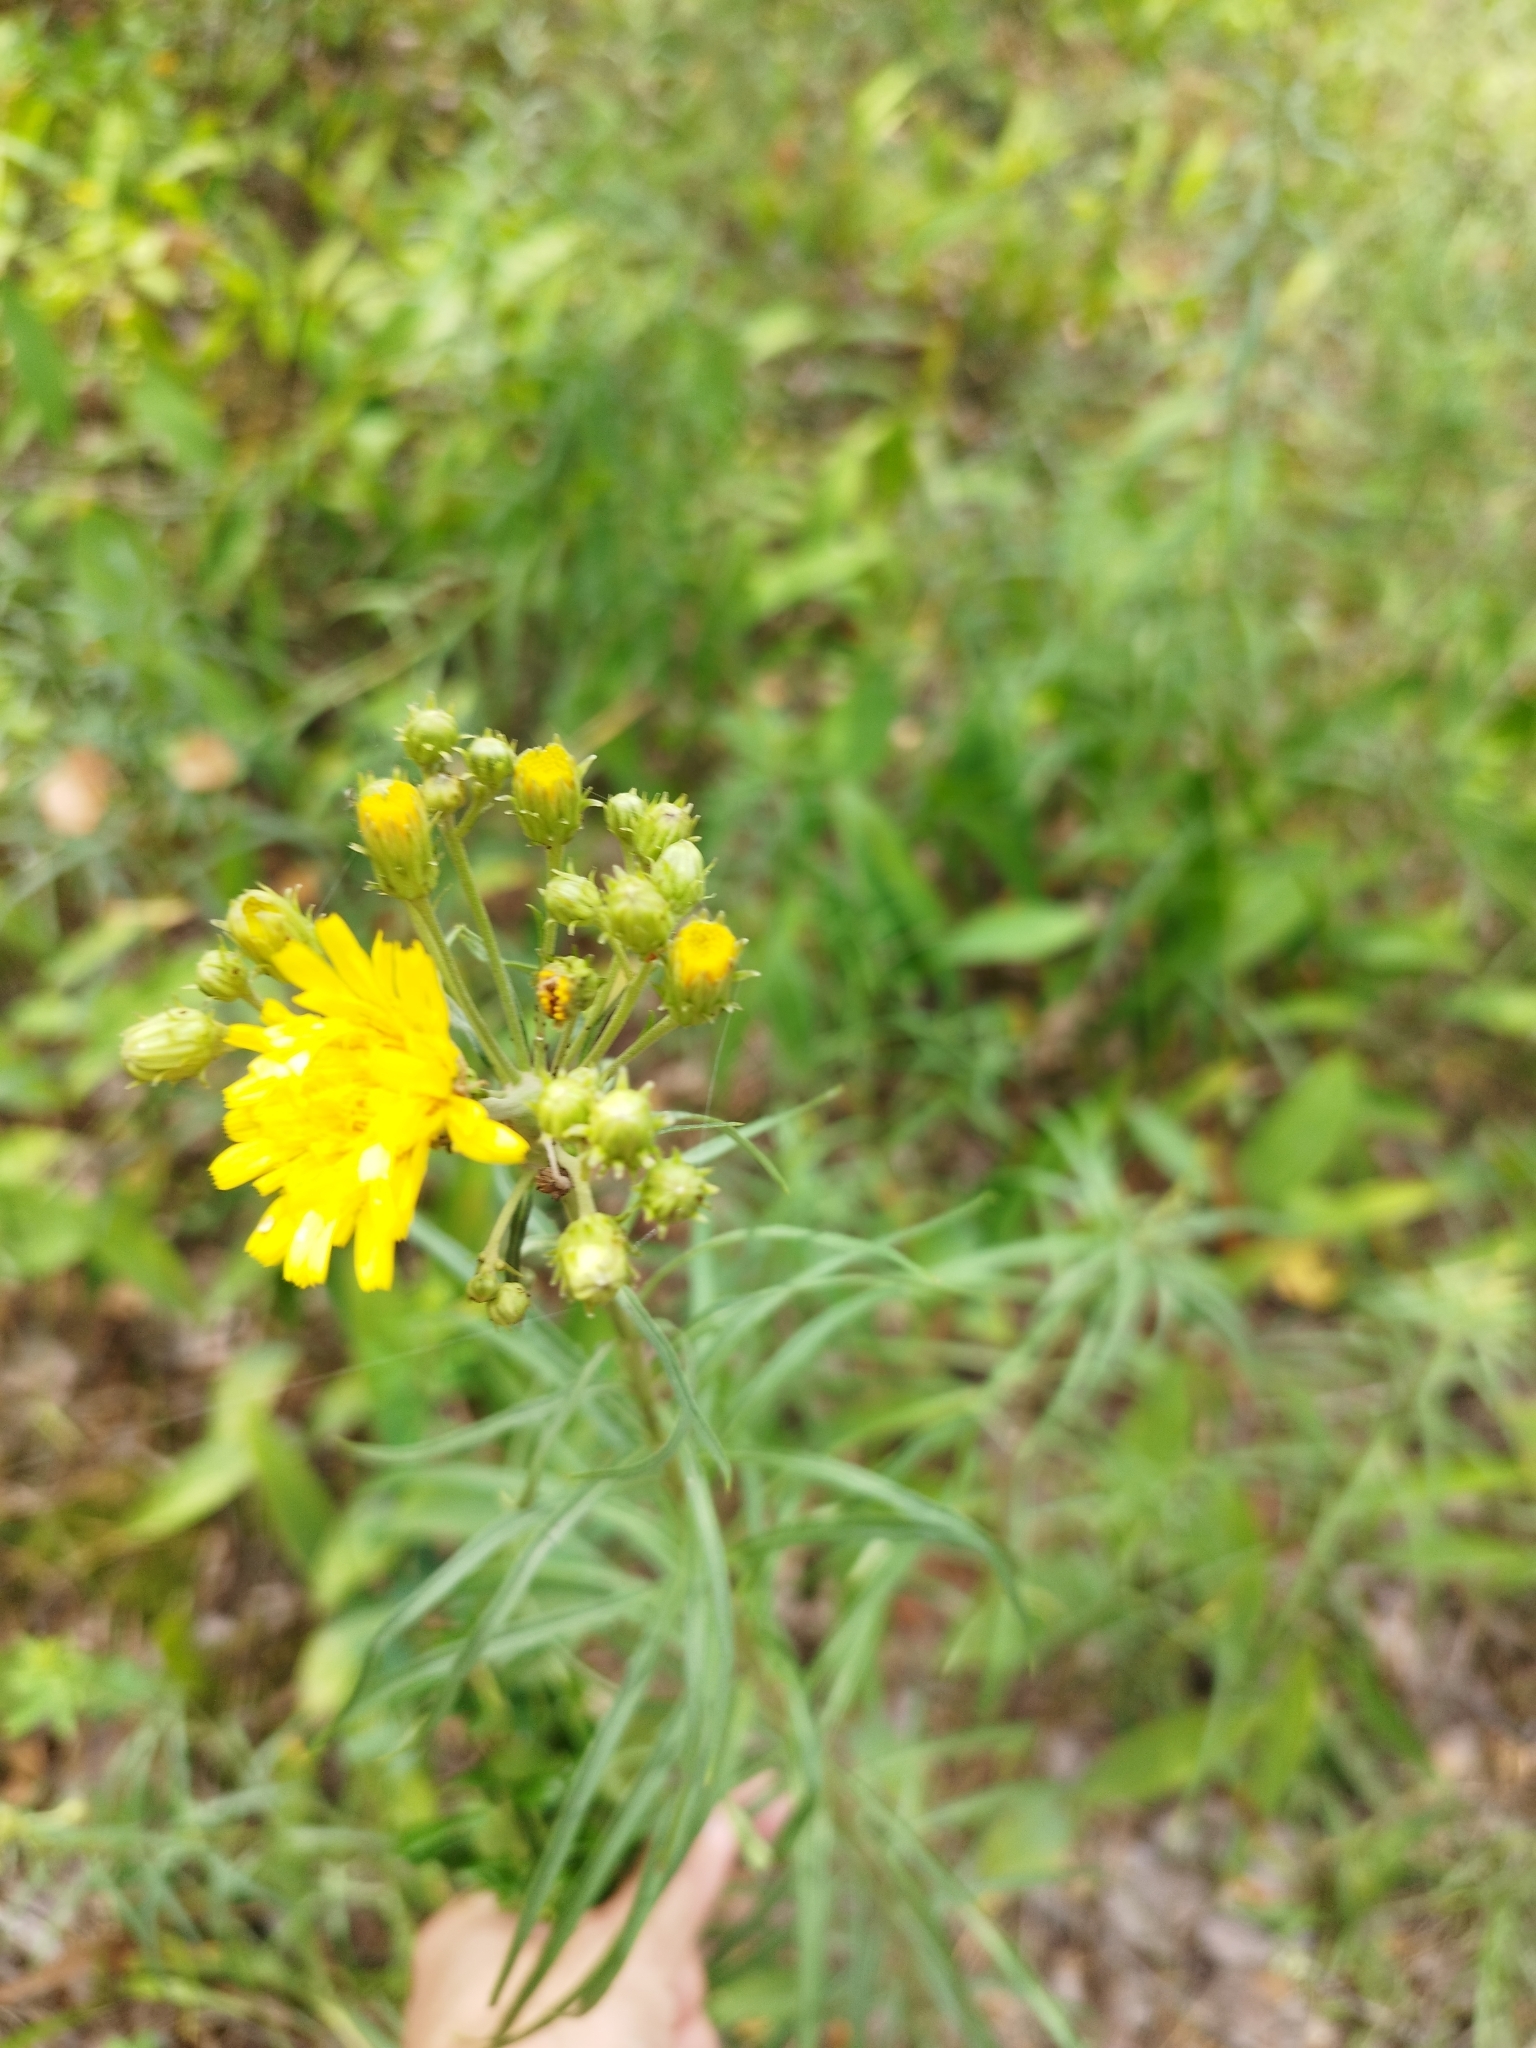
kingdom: Plantae
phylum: Tracheophyta
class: Magnoliopsida
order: Asterales
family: Asteraceae
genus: Hieracium
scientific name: Hieracium umbellatum
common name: Northern hawkweed
